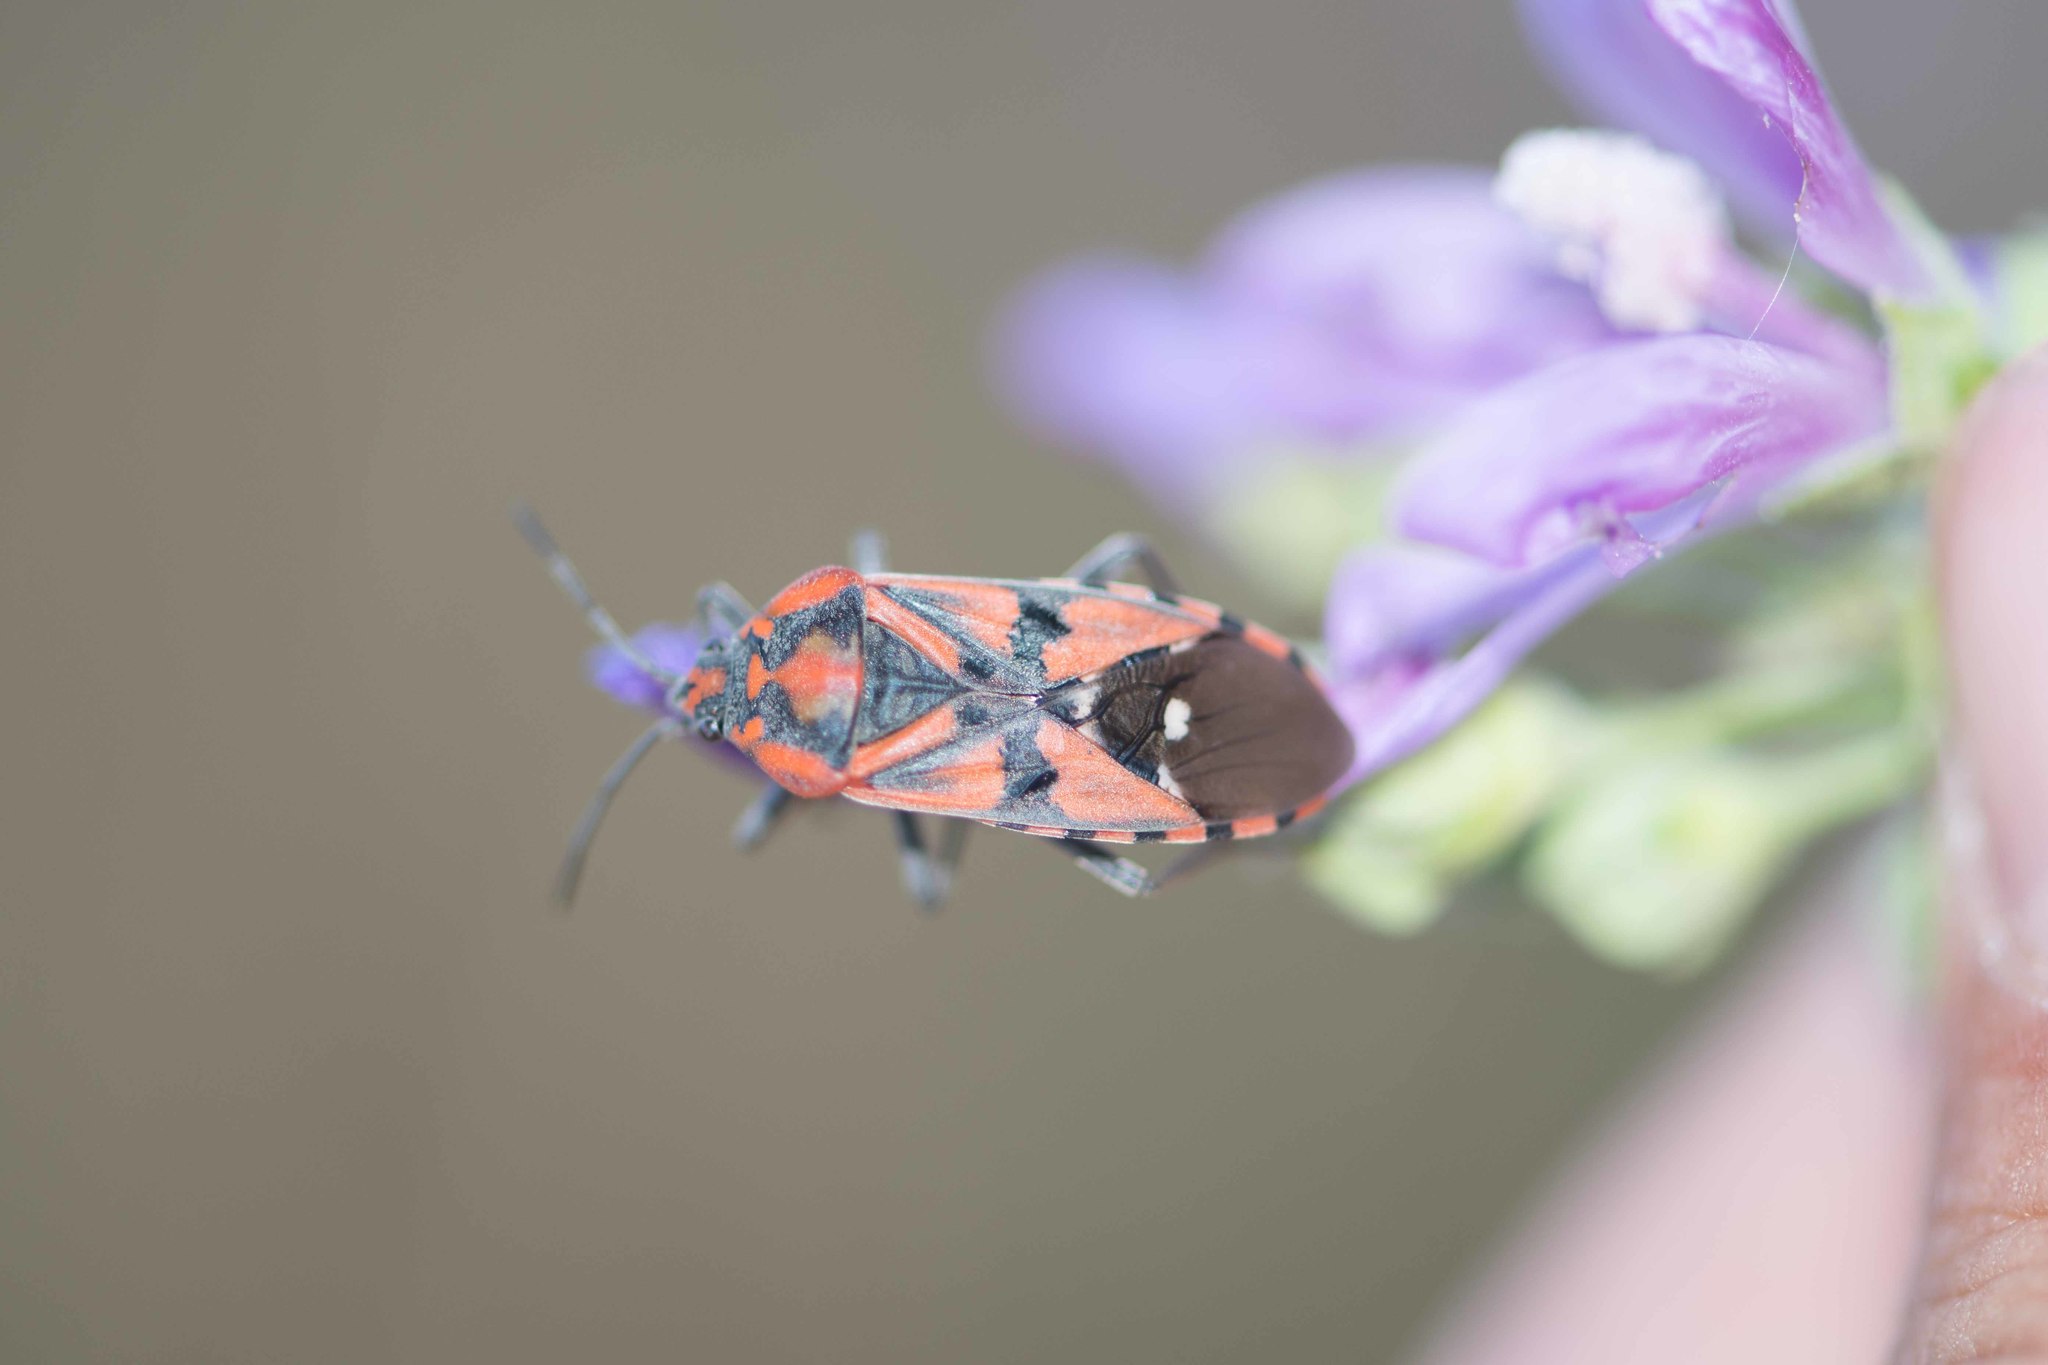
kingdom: Animalia
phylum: Arthropoda
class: Insecta
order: Hemiptera
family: Lygaeidae
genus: Spilostethus
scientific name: Spilostethus pandurus
